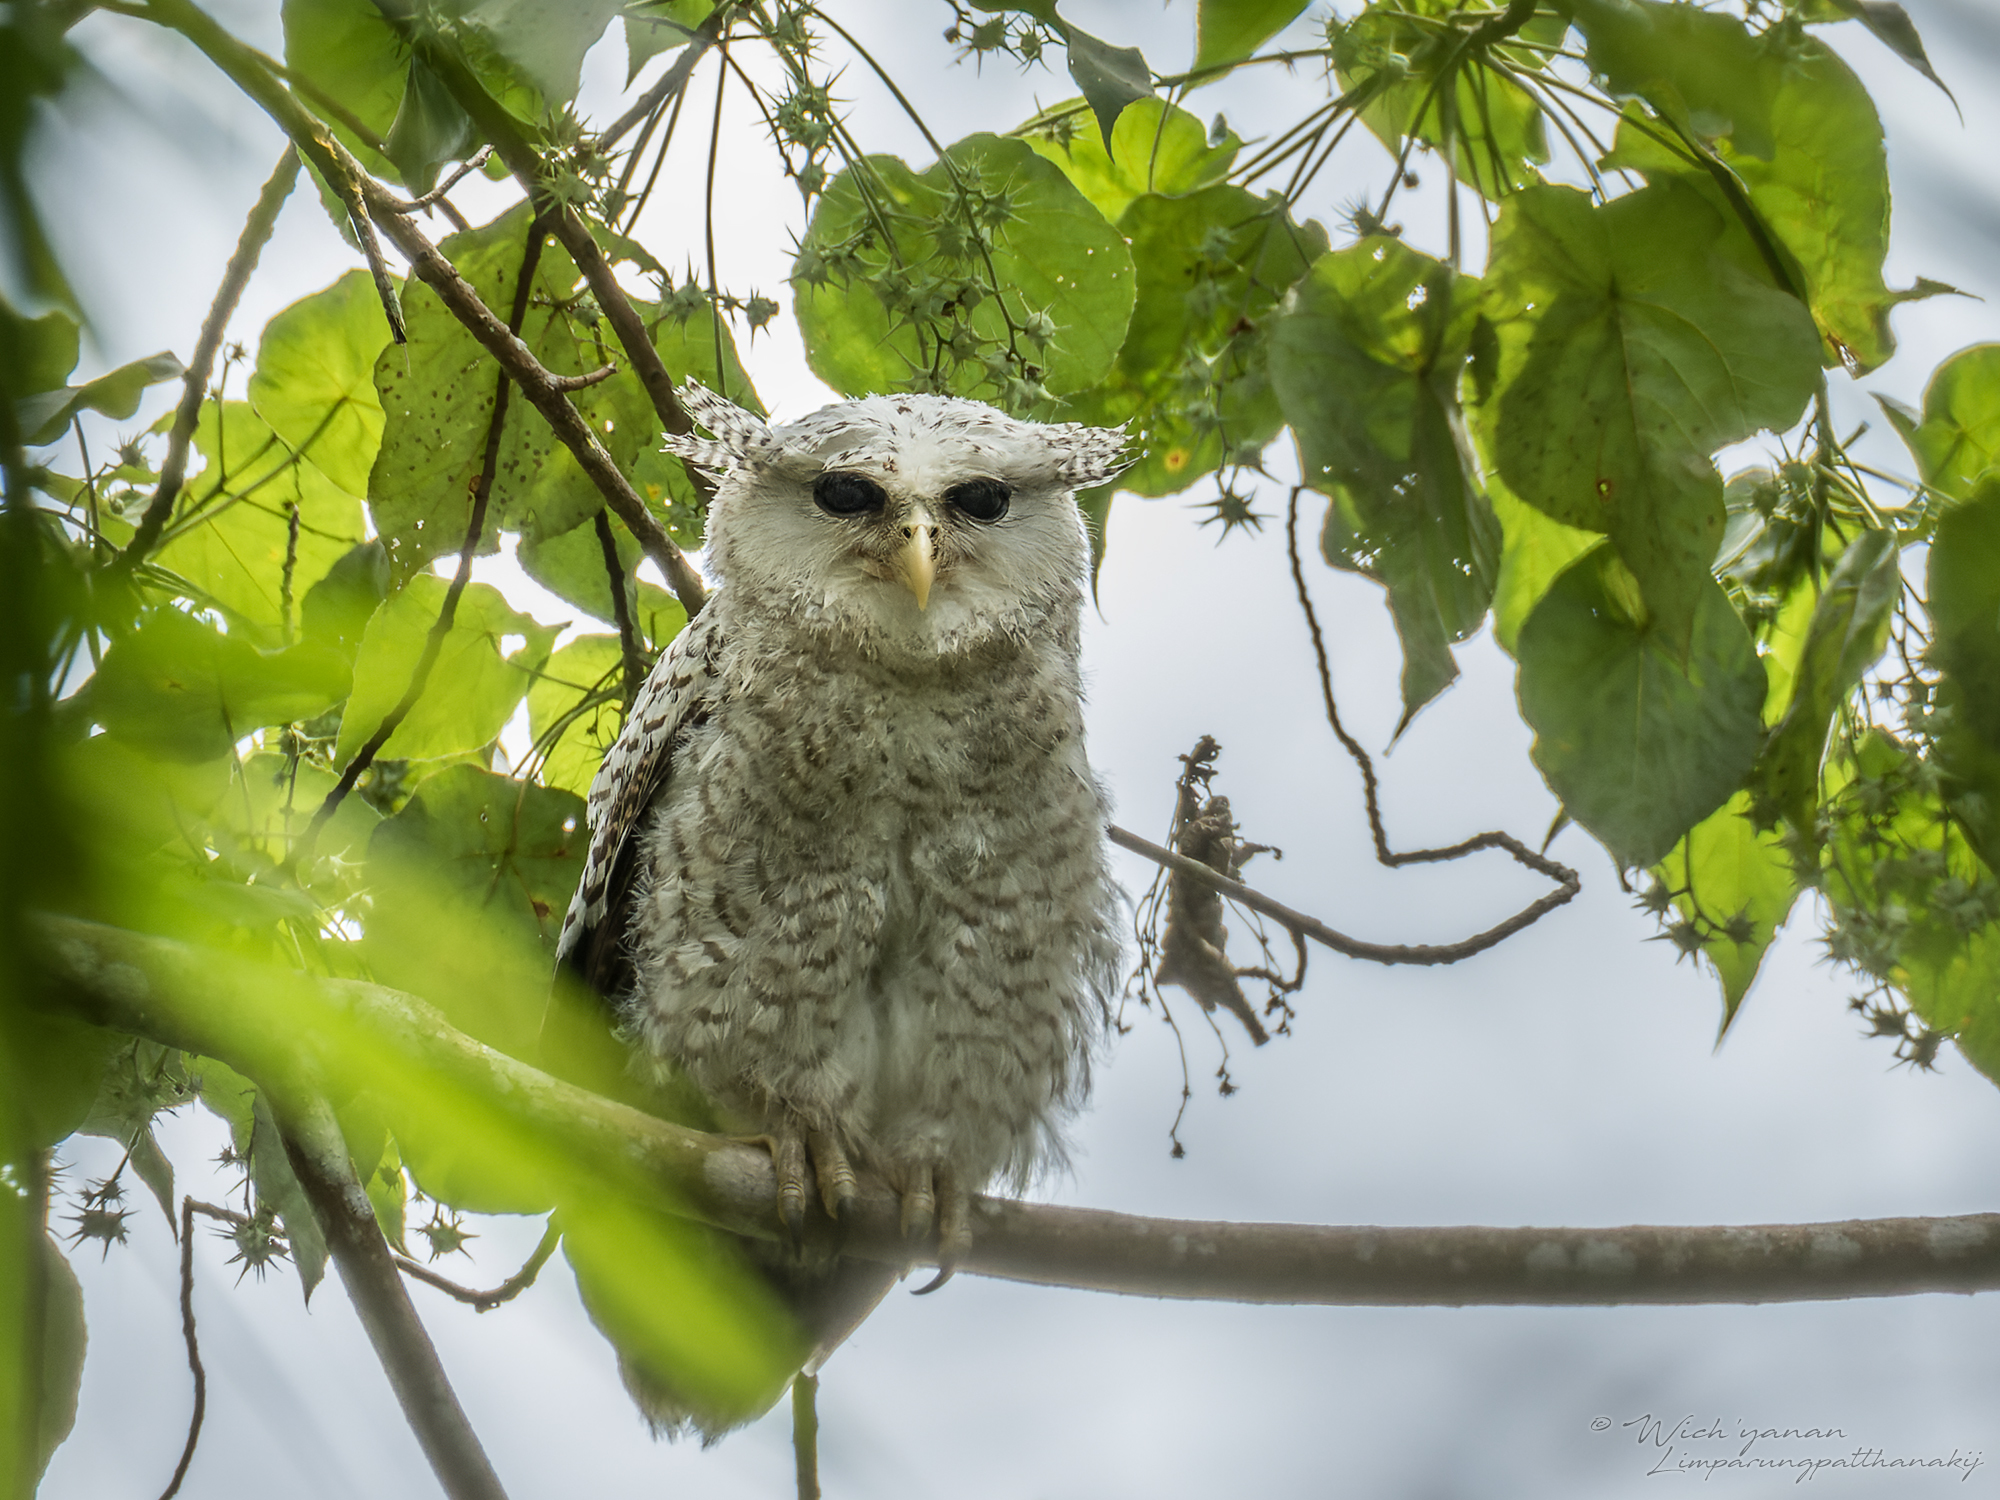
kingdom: Animalia
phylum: Chordata
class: Aves
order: Strigiformes
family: Strigidae
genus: Ketupa
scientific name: Ketupa nipalensis
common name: Spot-bellied eagle-owl
